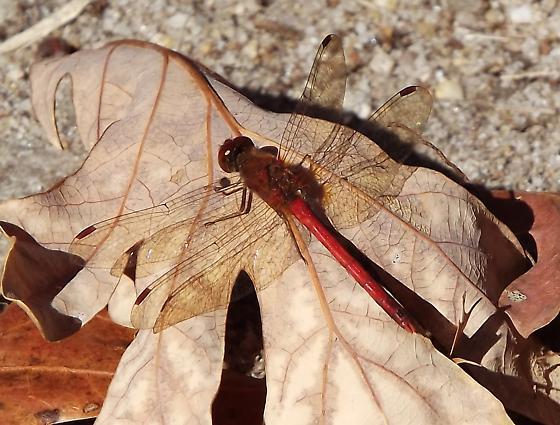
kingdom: Animalia
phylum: Arthropoda
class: Insecta
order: Odonata
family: Libellulidae
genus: Sympetrum
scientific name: Sympetrum vicinum
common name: Autumn meadowhawk
